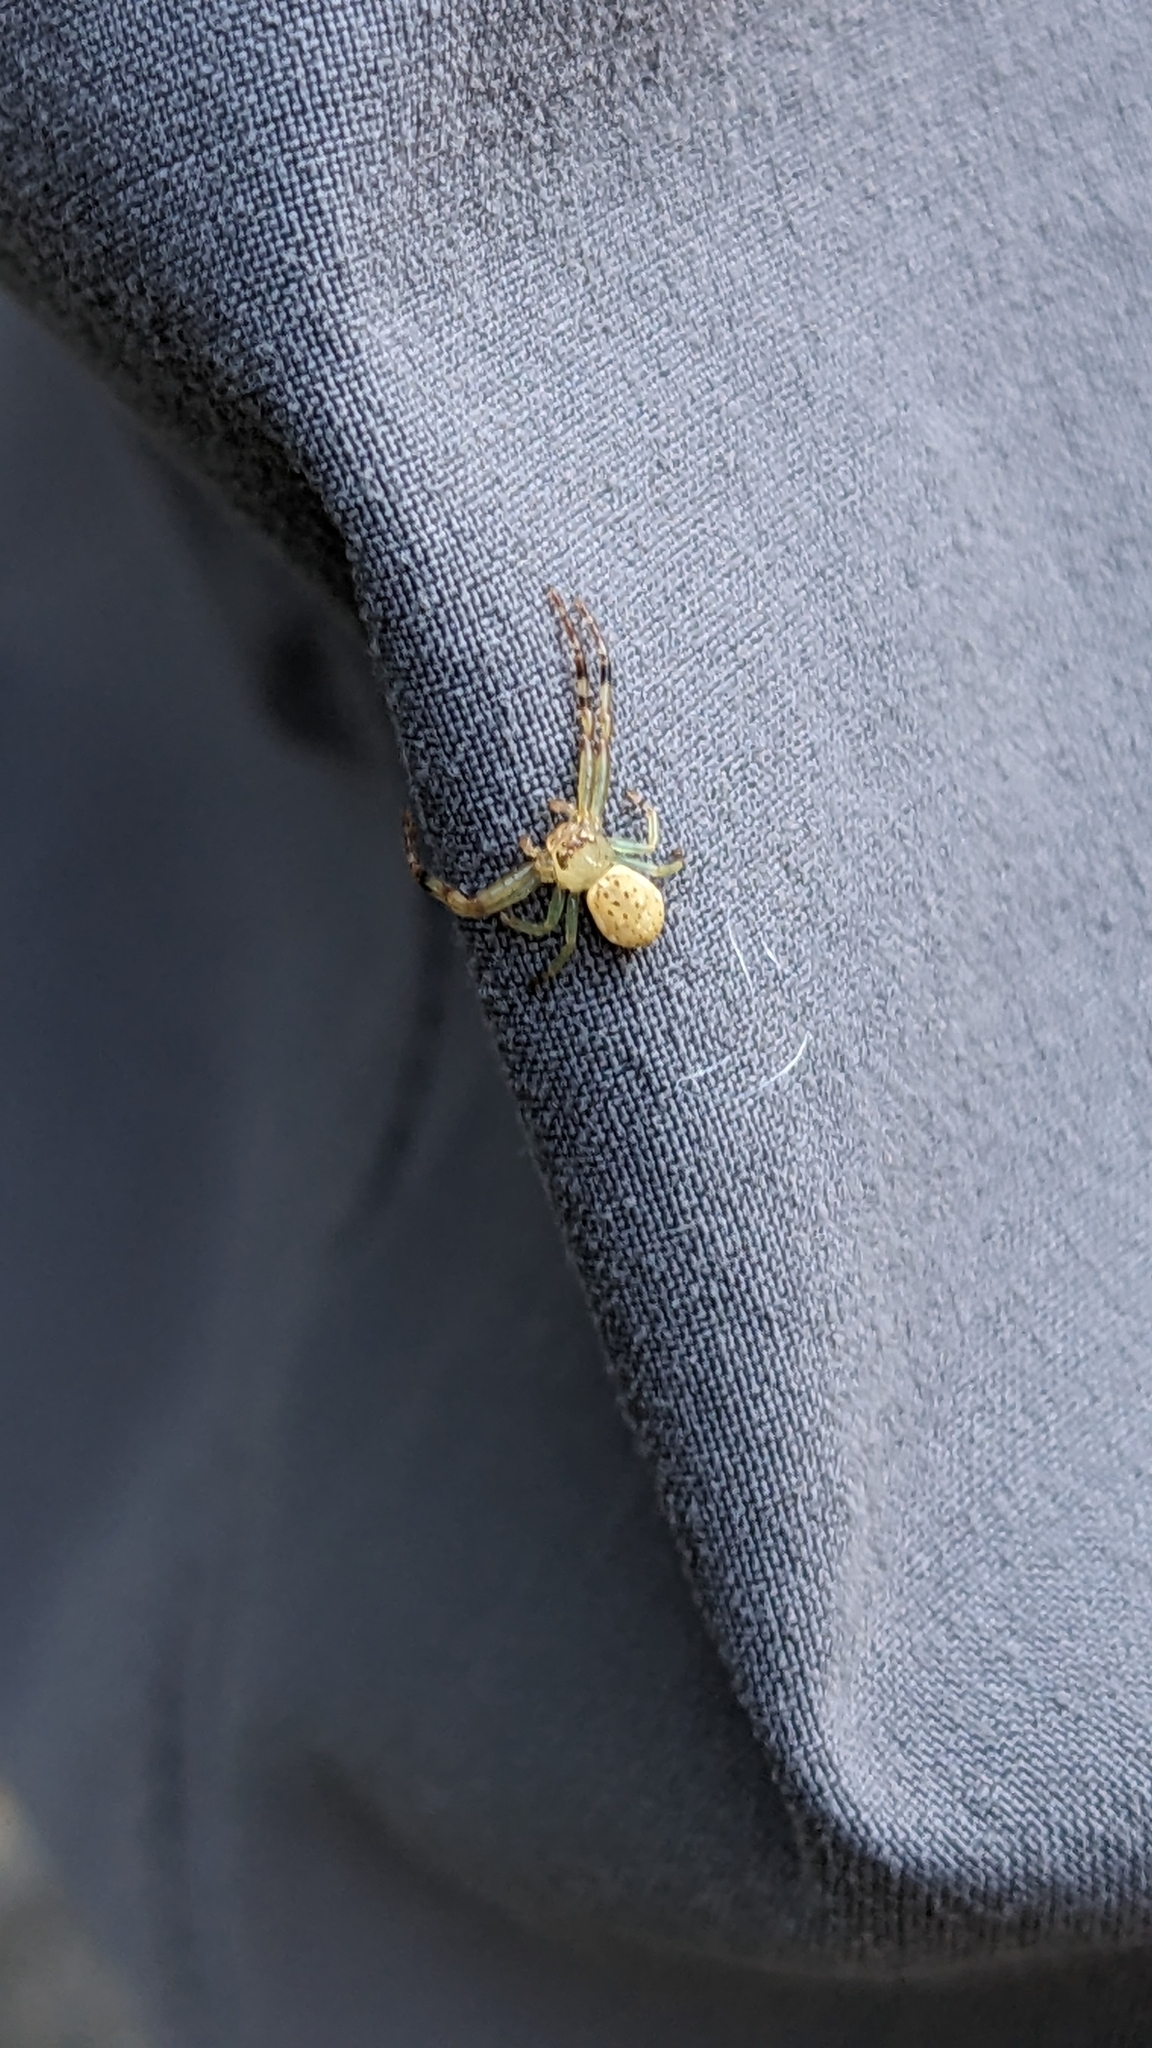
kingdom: Animalia
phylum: Arthropoda
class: Arachnida
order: Araneae
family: Thomisidae
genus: Diaea
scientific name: Diaea ambara
